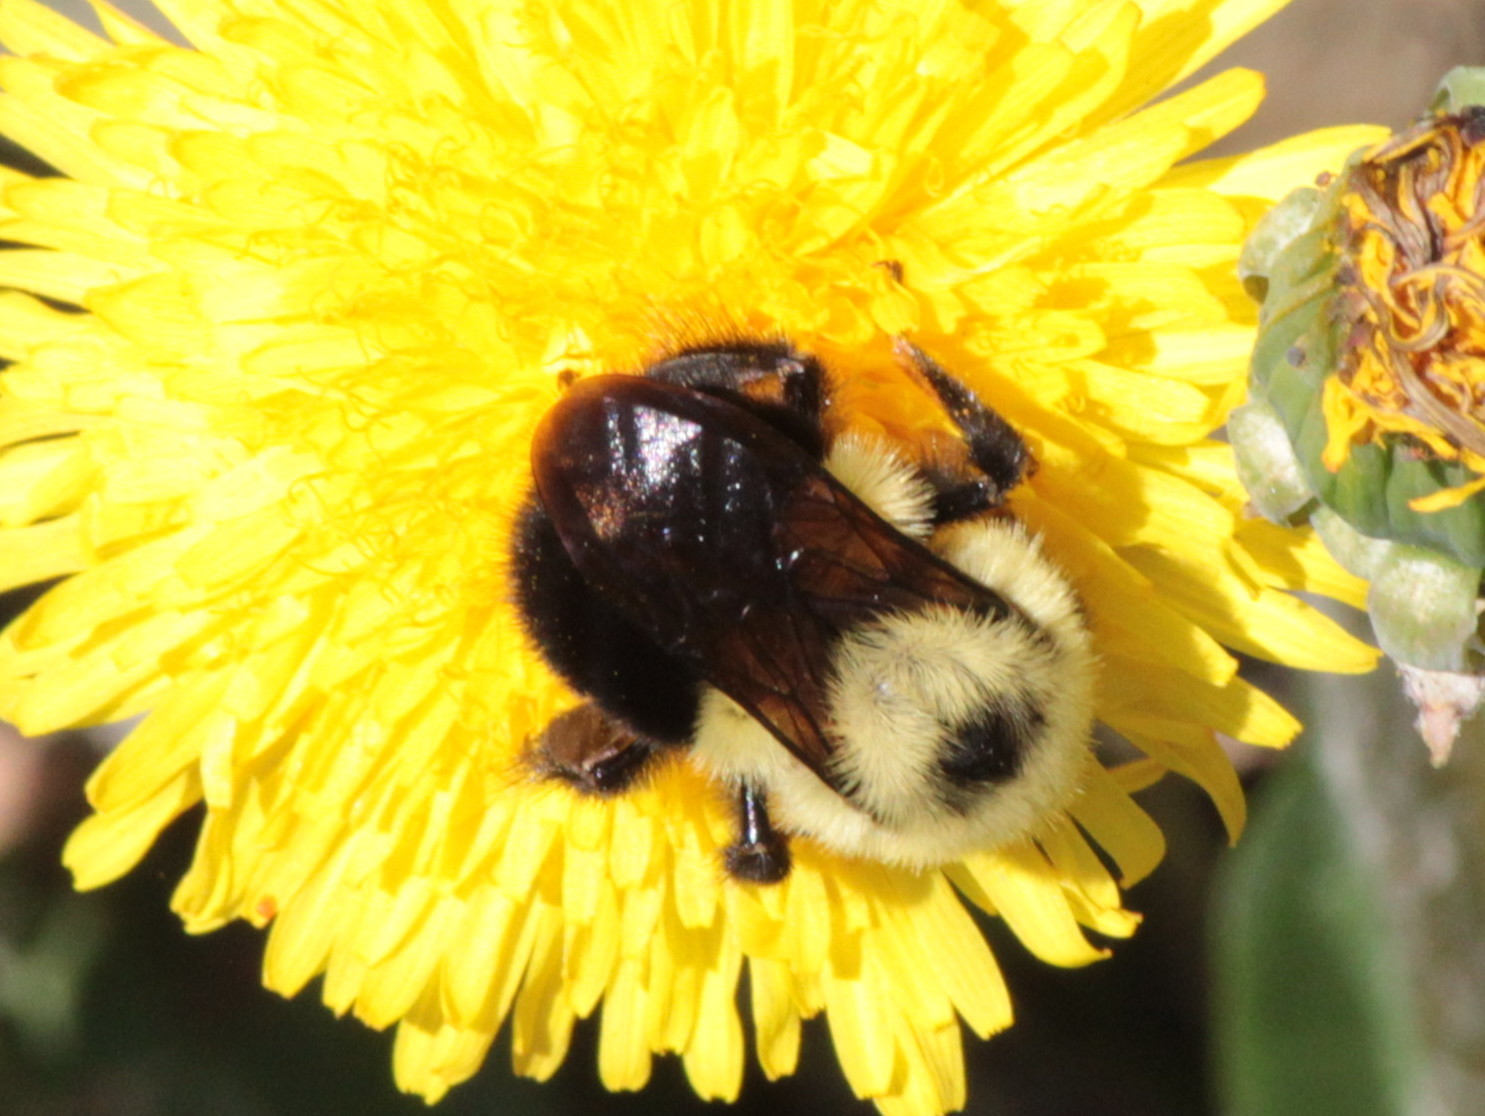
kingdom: Animalia
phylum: Arthropoda
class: Insecta
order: Hymenoptera
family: Apidae
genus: Bombus
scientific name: Bombus bimaculatus
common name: Two-spotted bumble bee
